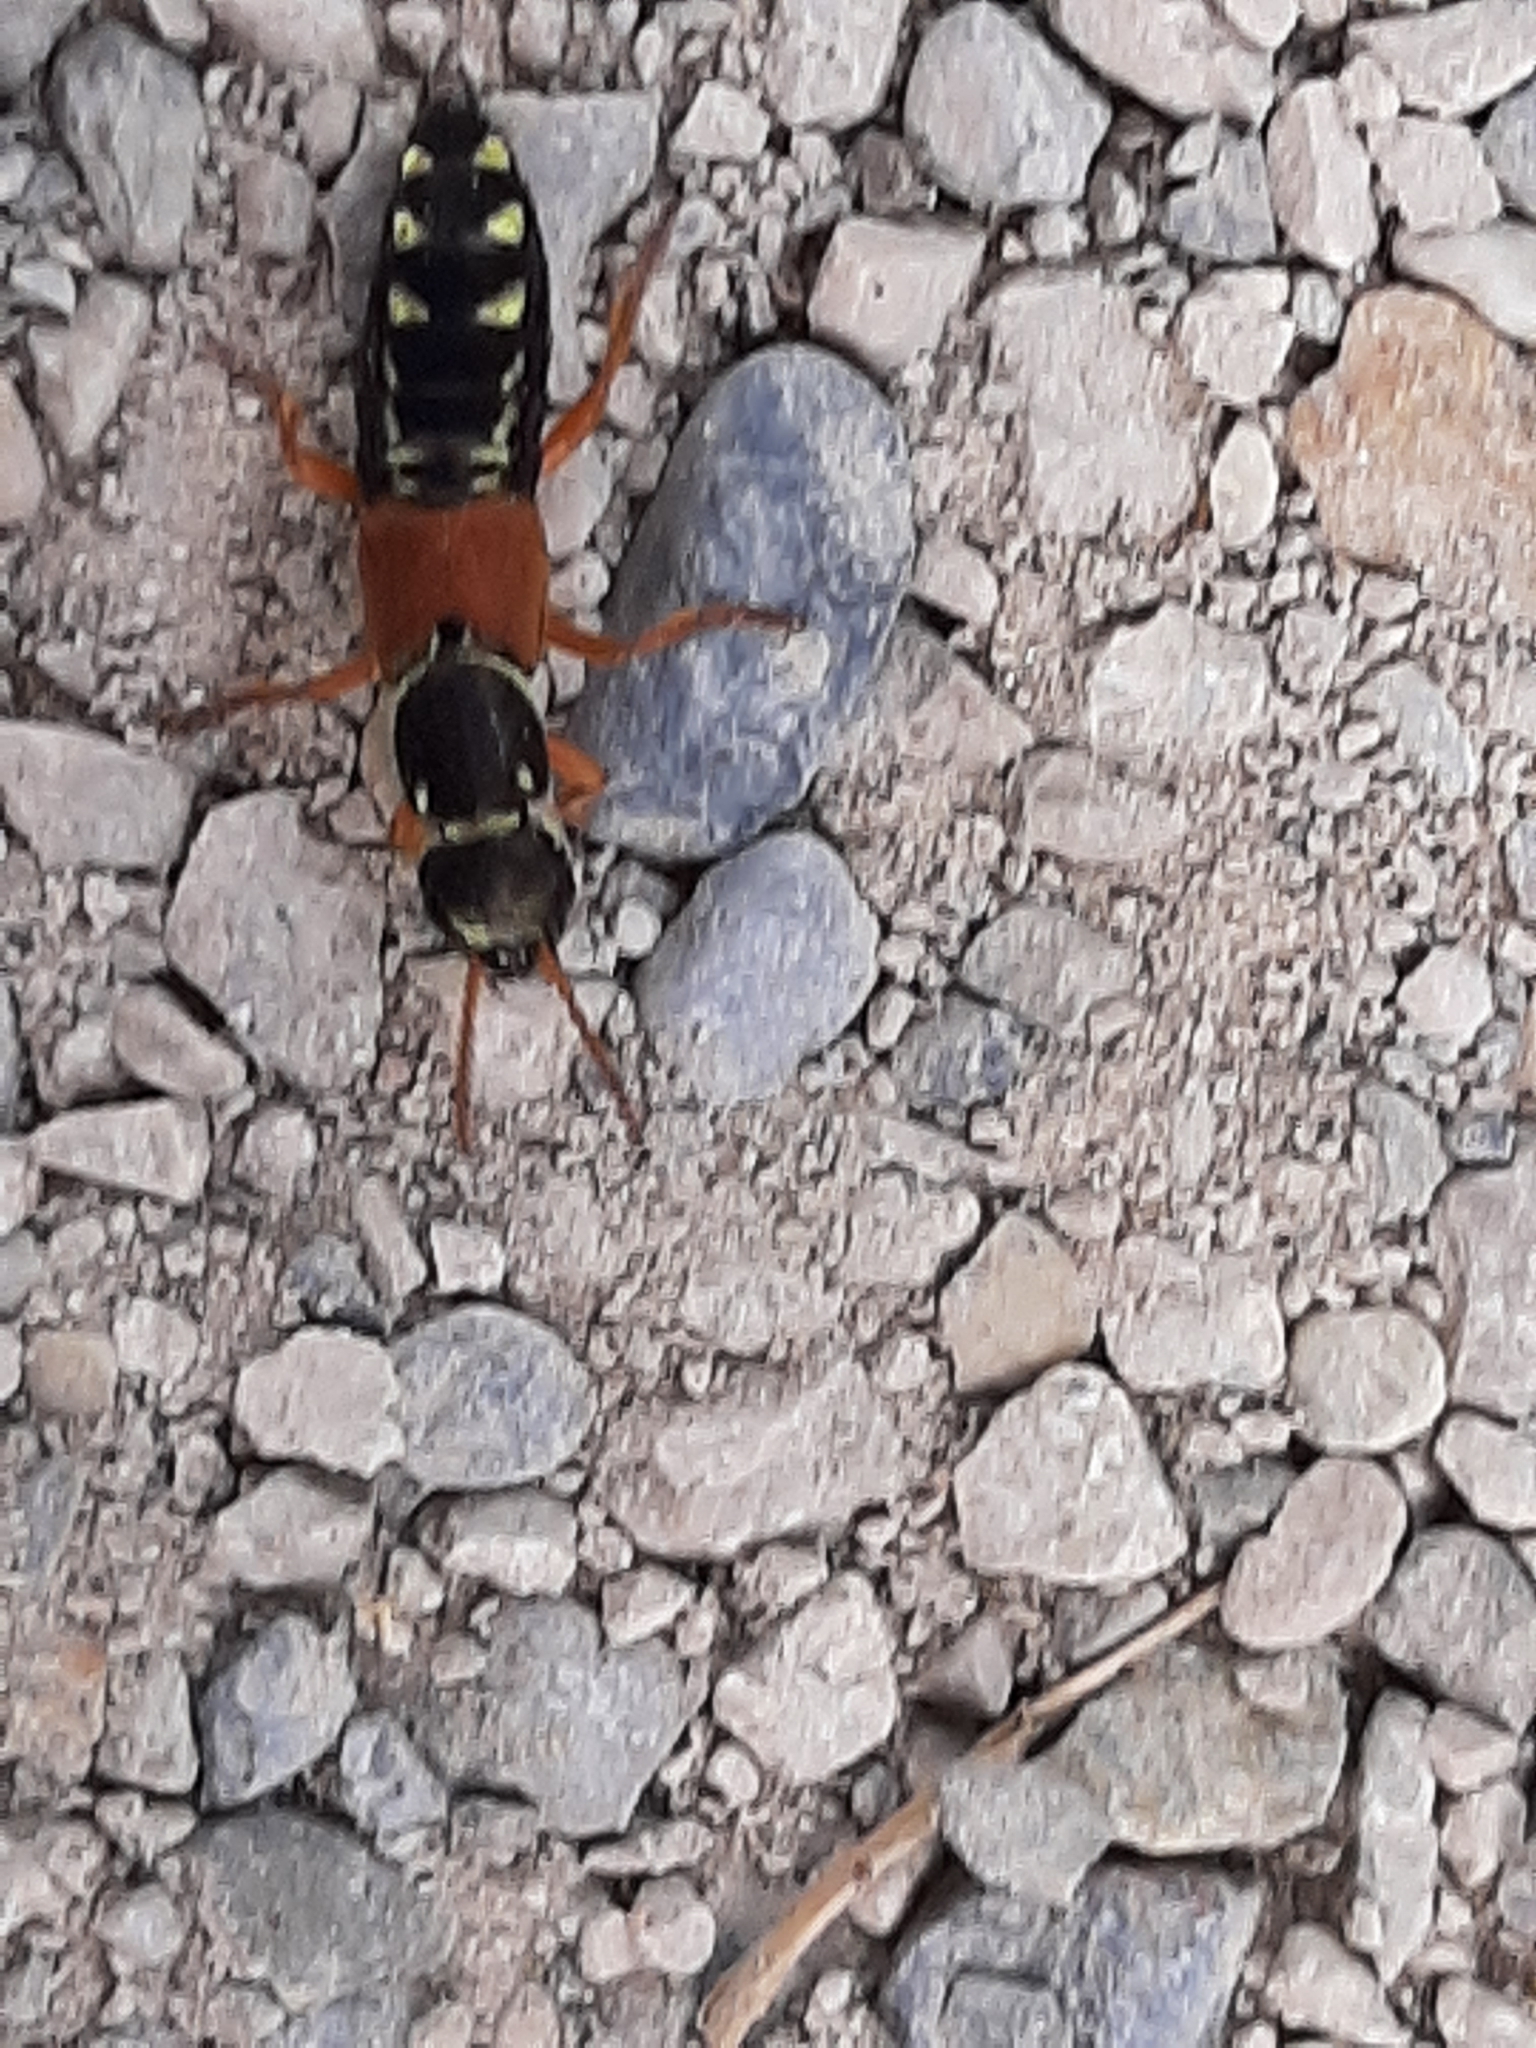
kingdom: Animalia
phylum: Arthropoda
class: Insecta
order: Coleoptera
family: Staphylinidae
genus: Staphylinus
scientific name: Staphylinus caesareus
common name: Staph beetle
